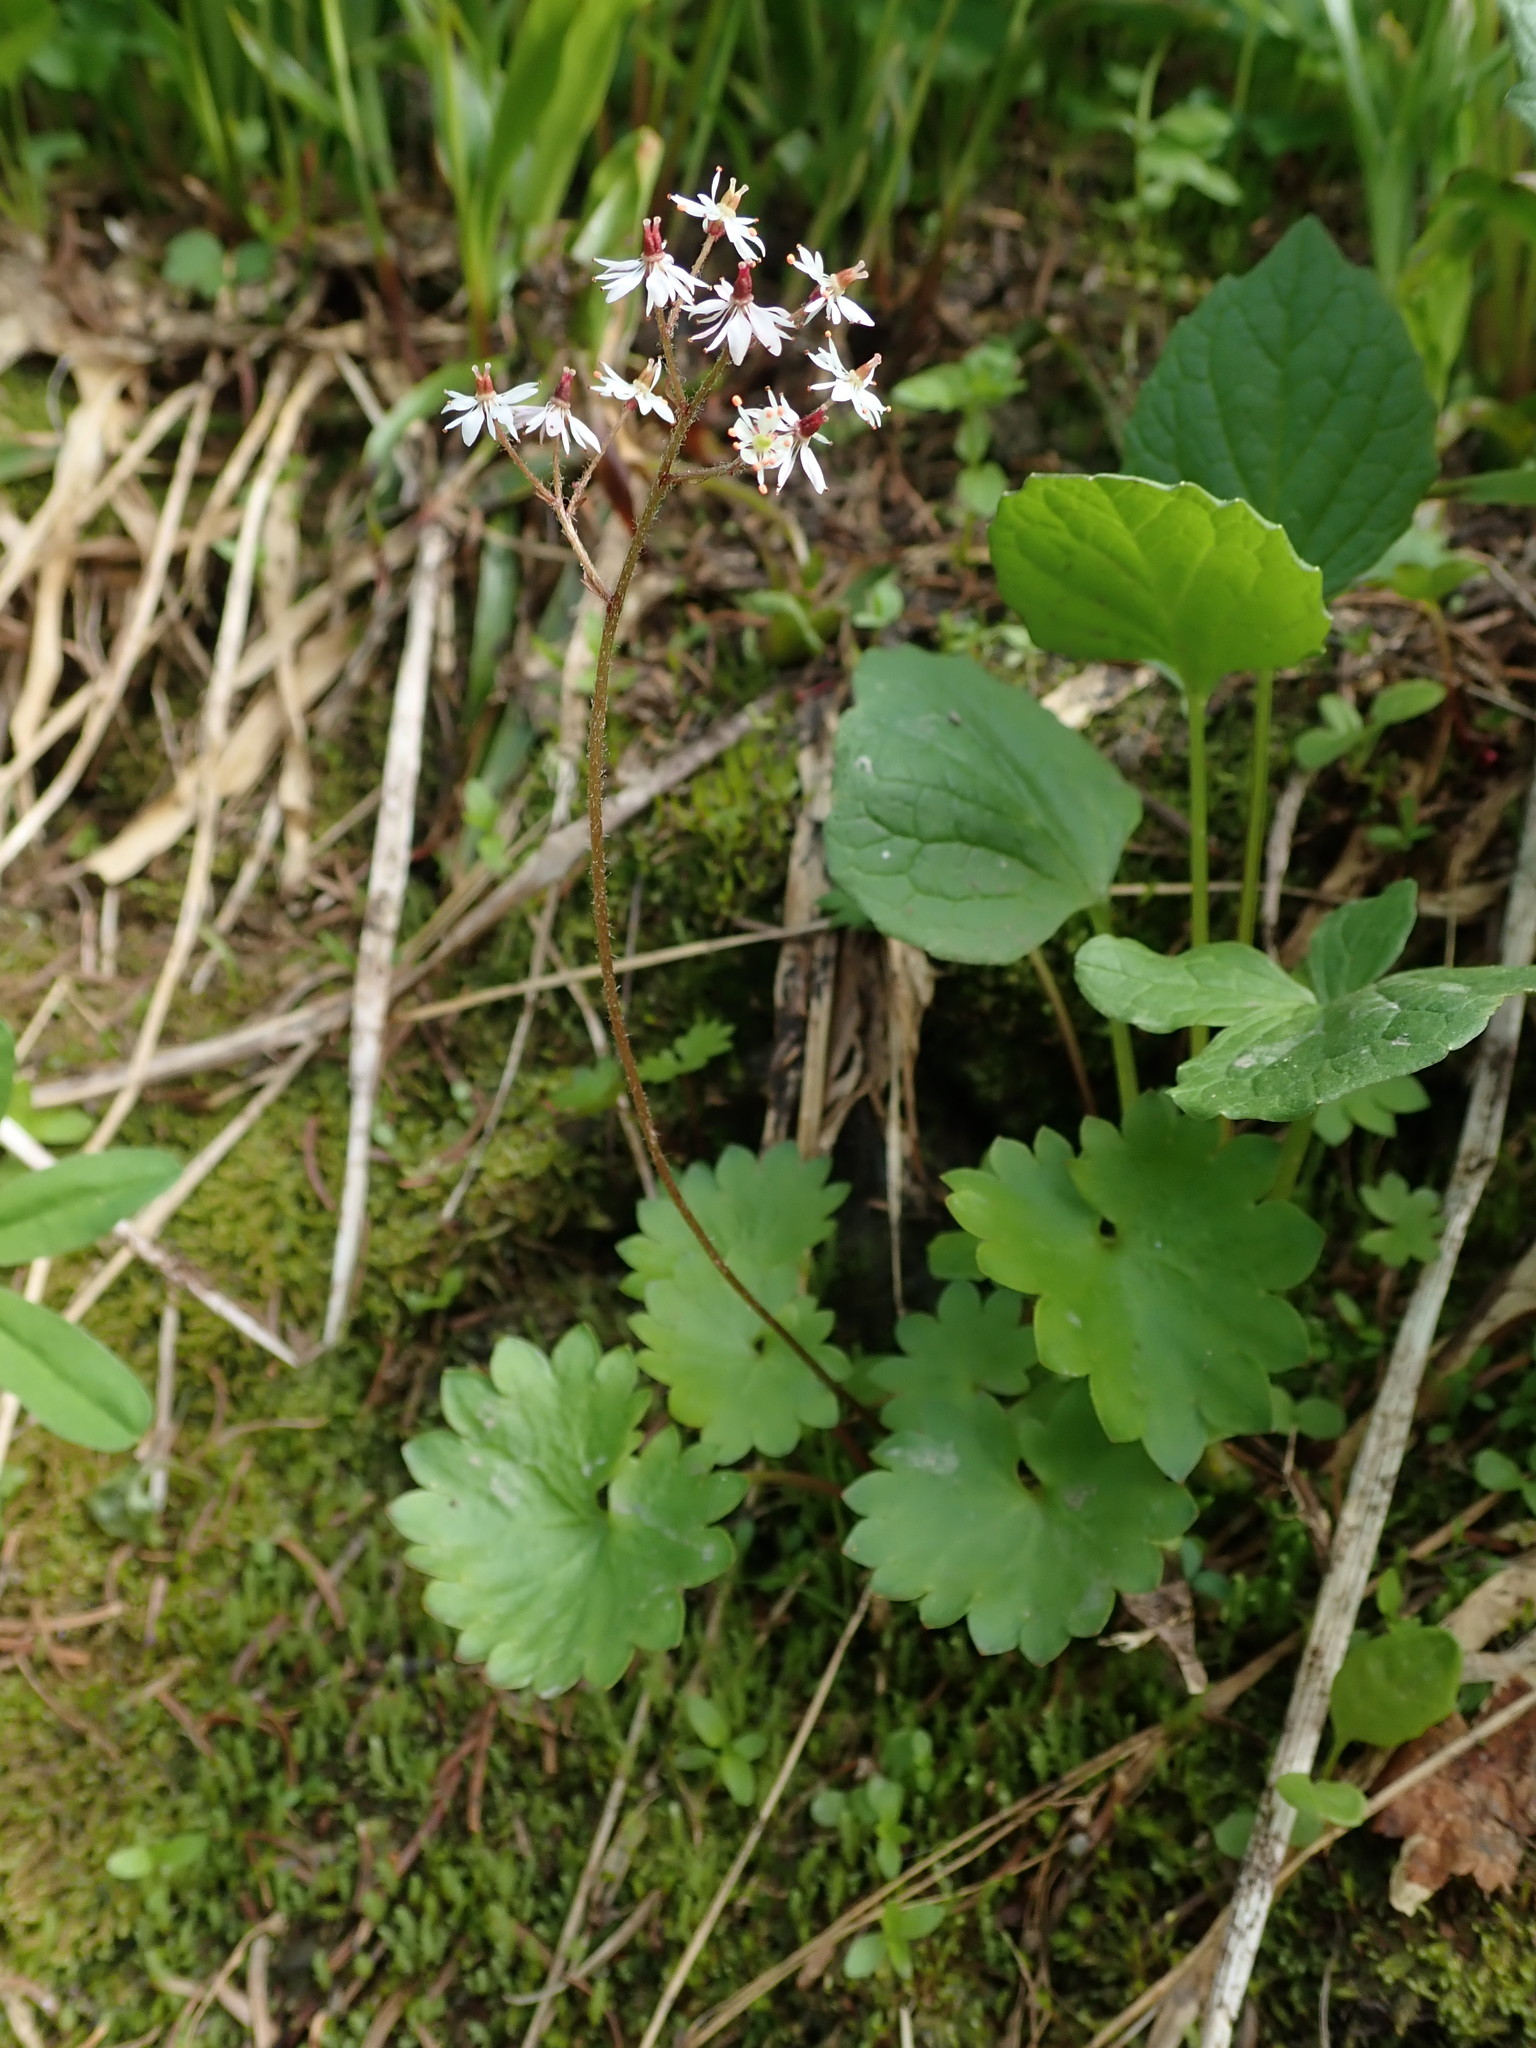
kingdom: Plantae
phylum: Tracheophyta
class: Magnoliopsida
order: Saxifragales
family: Saxifragaceae
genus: Micranthes
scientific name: Micranthes nelsoniana
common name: Nelson's saxifrage
